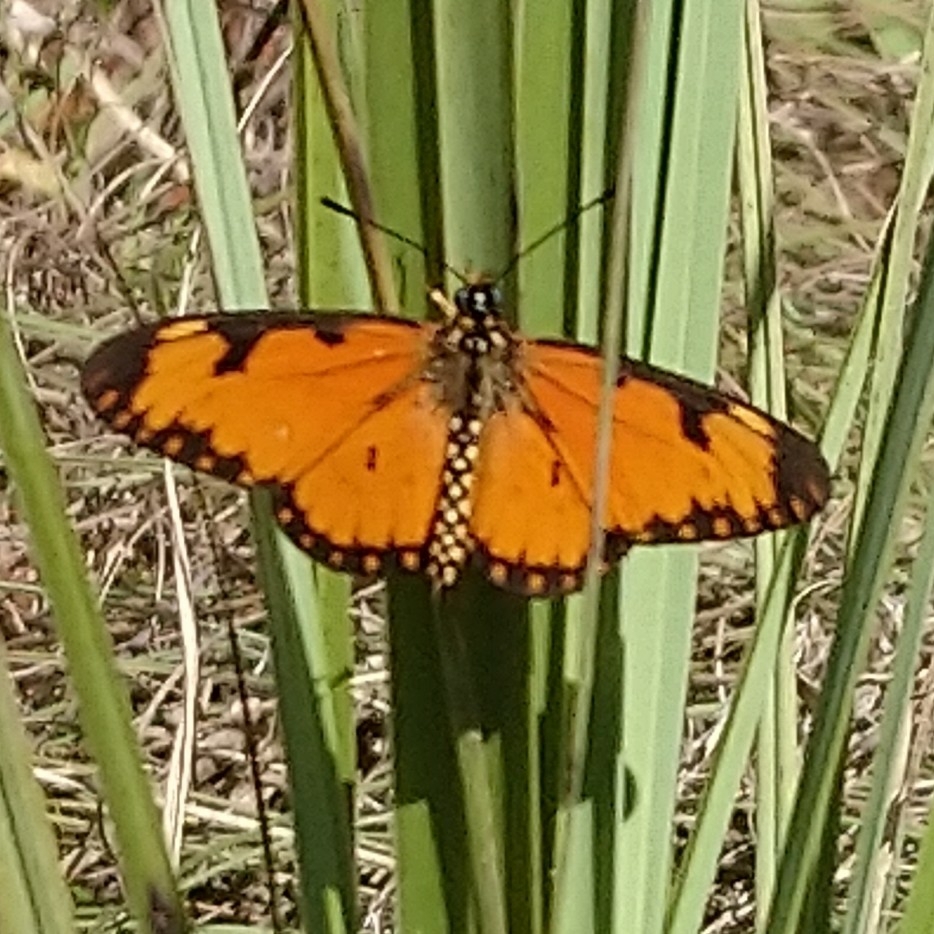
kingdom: Animalia
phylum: Arthropoda
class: Insecta
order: Lepidoptera
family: Nymphalidae
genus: Acraea
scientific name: Acraea Telchinia serena
